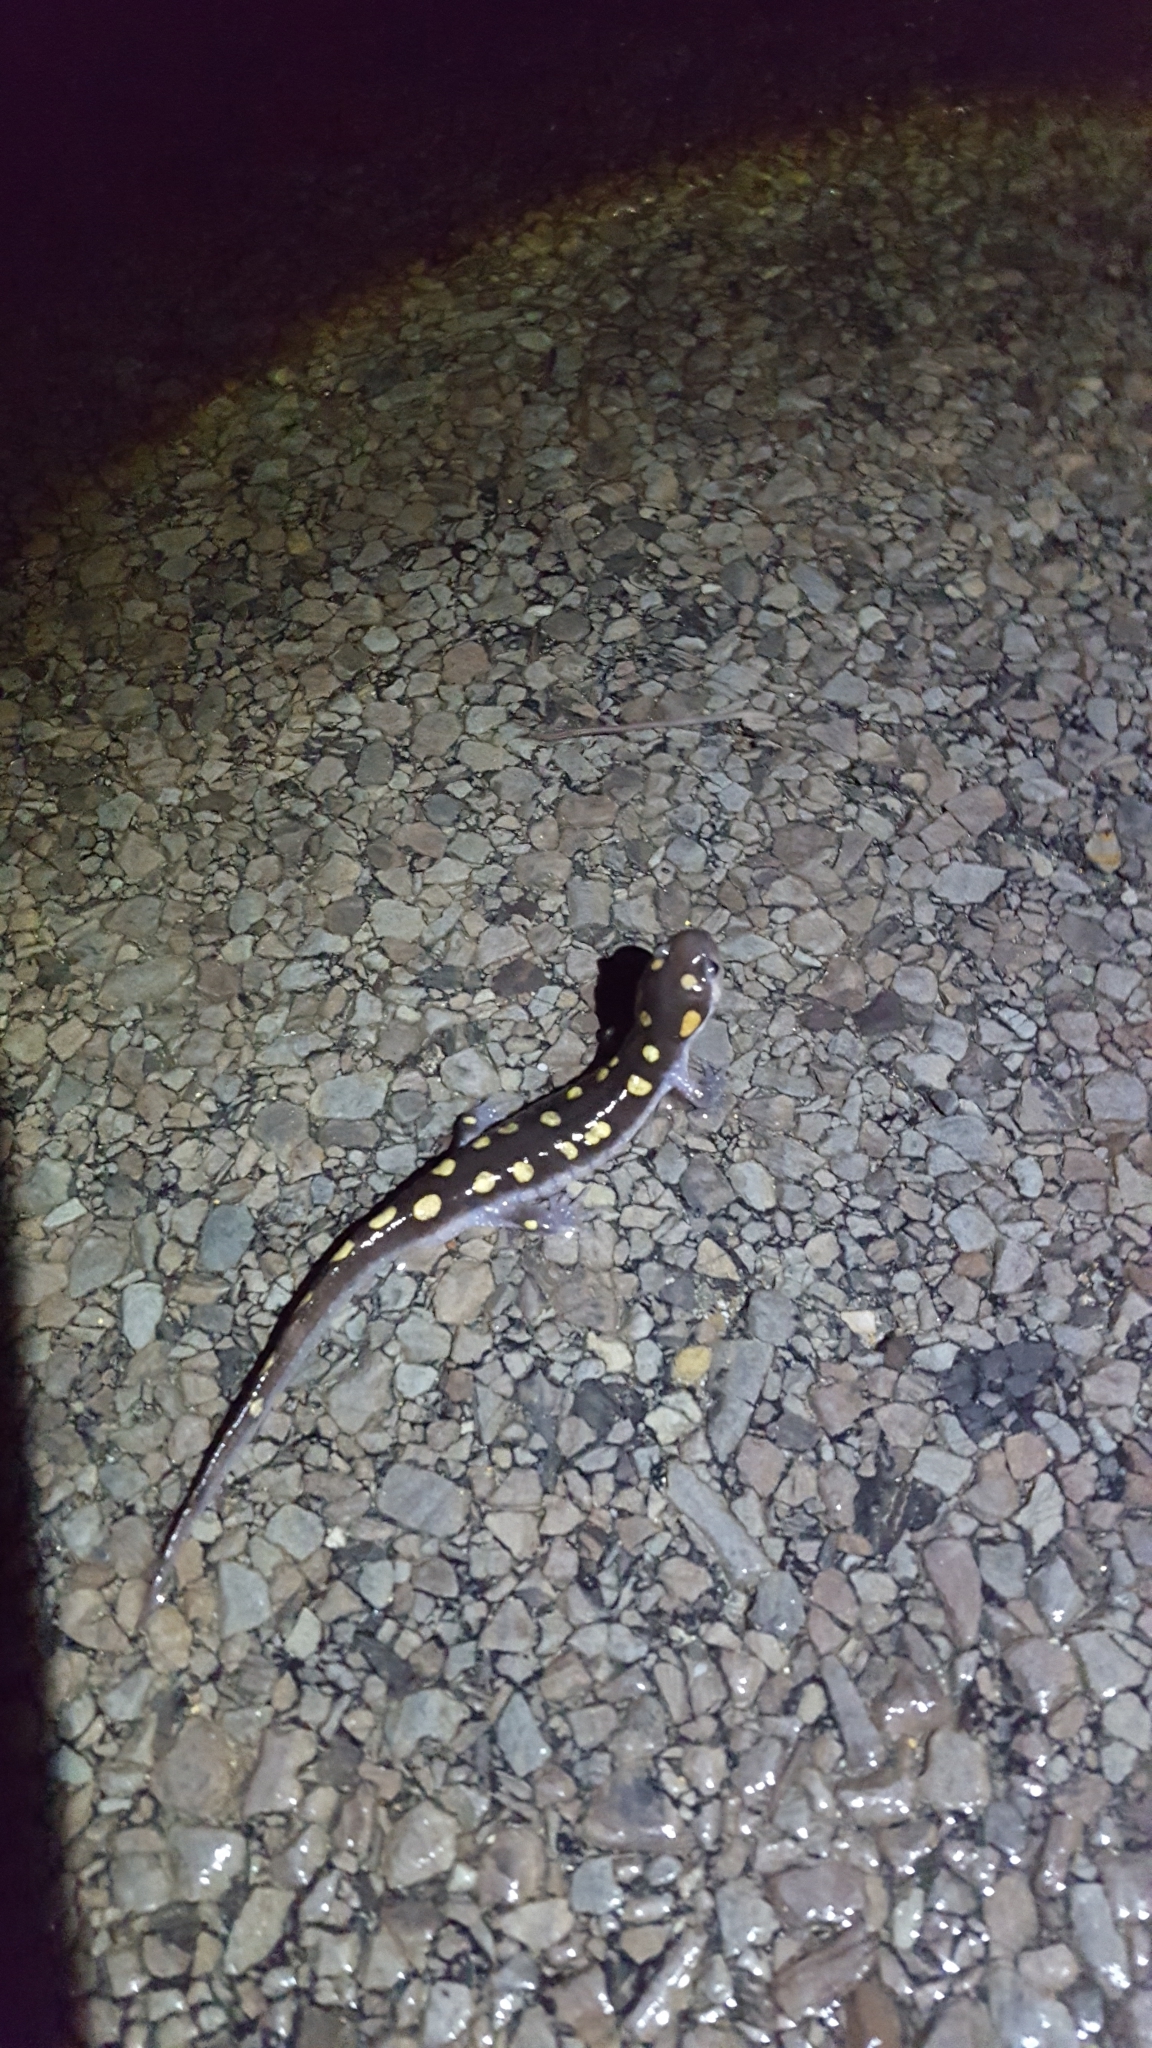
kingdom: Animalia
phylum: Chordata
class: Amphibia
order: Caudata
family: Ambystomatidae
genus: Ambystoma
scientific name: Ambystoma maculatum
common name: Spotted salamander
